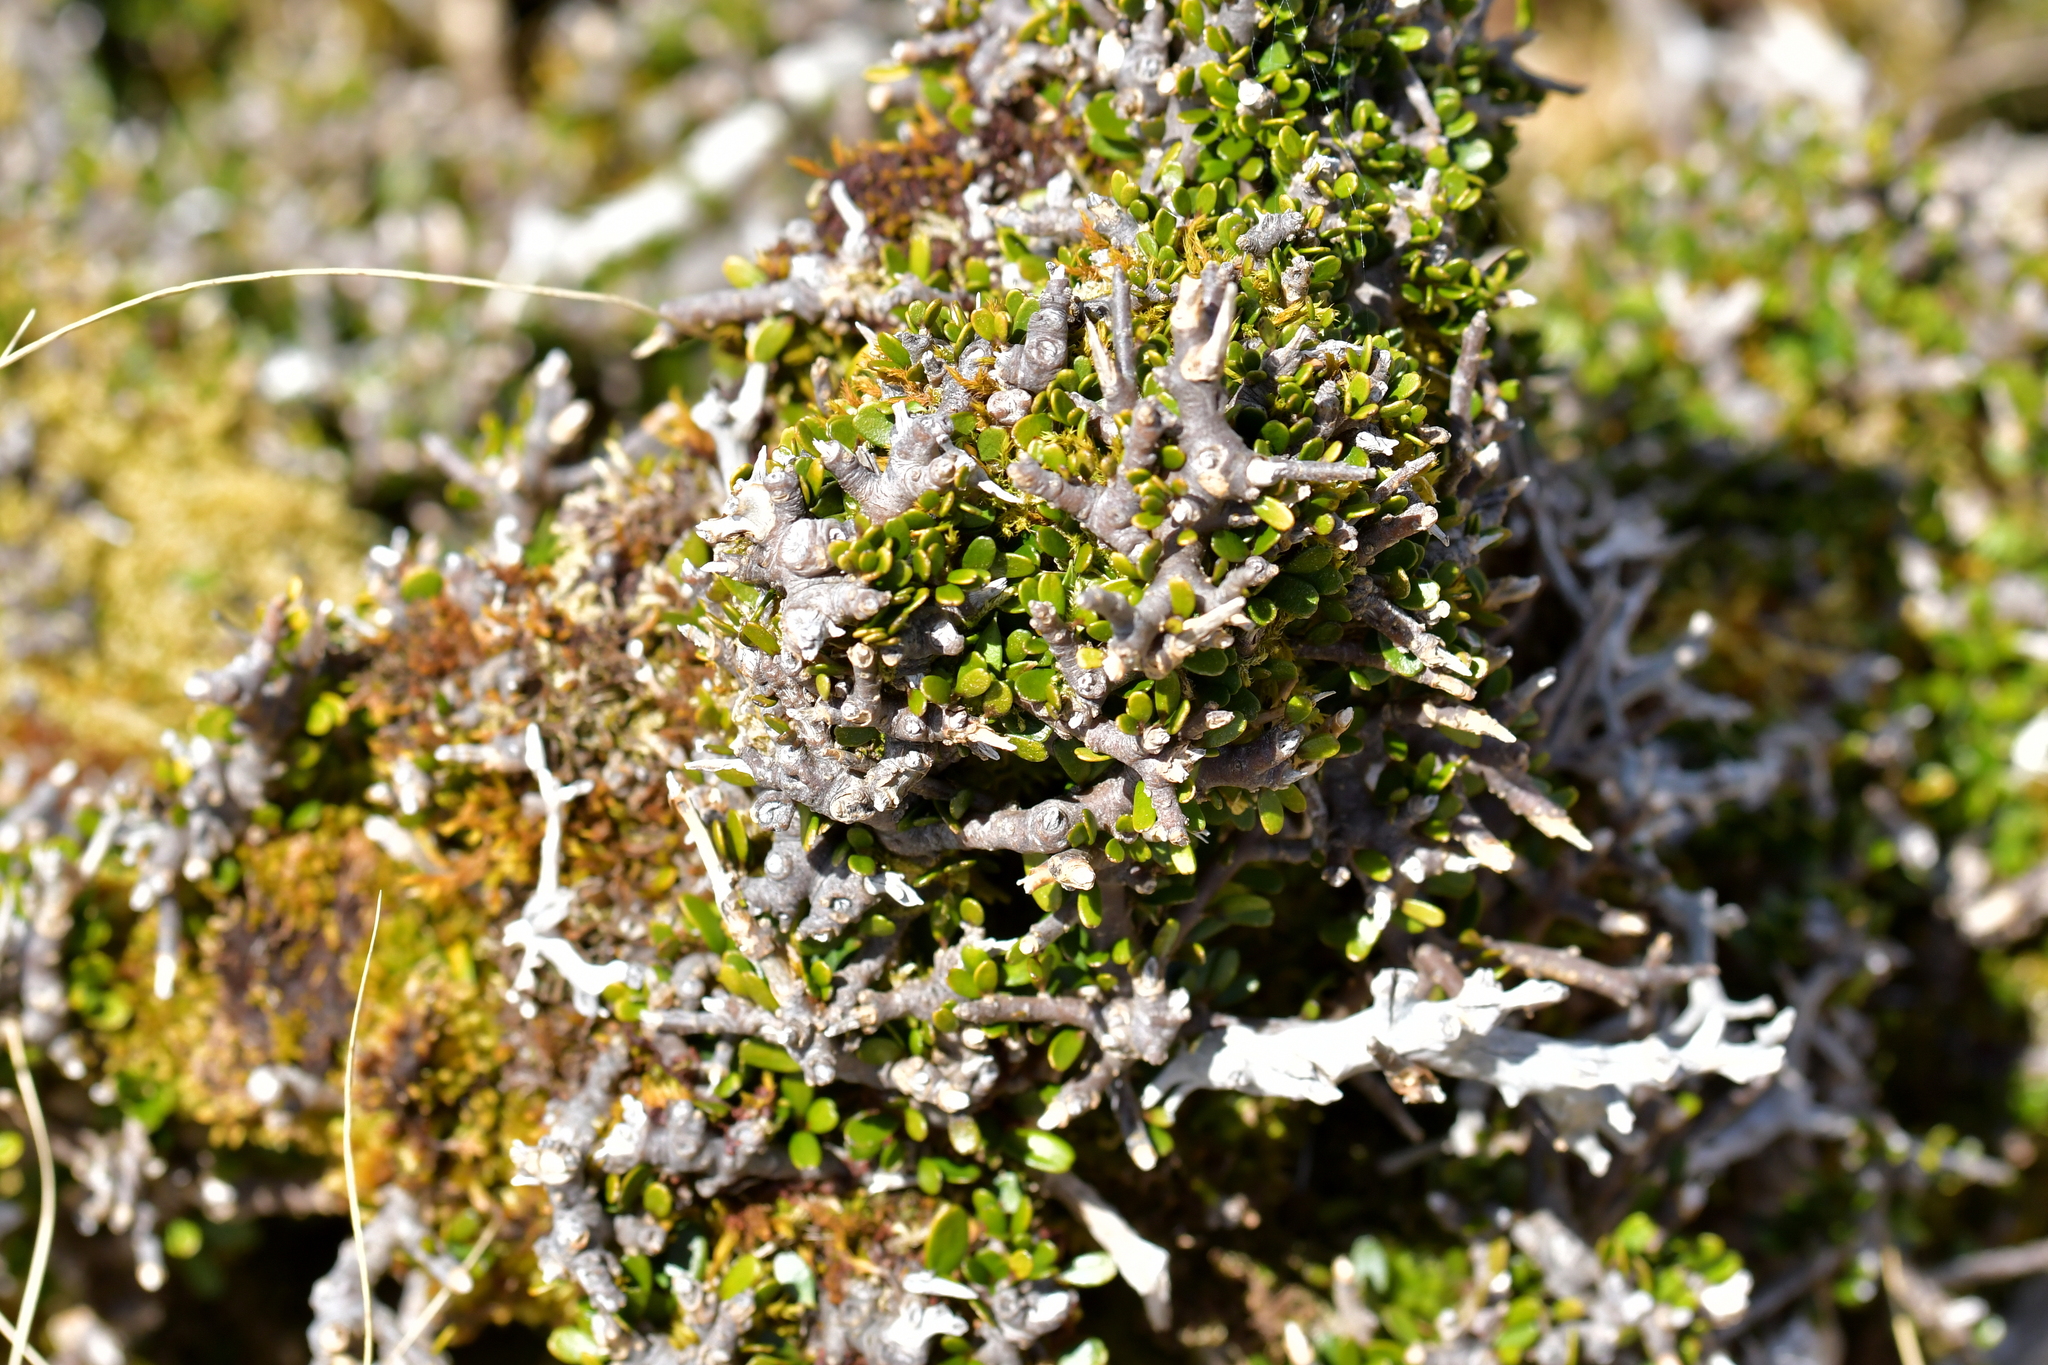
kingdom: Plantae
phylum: Tracheophyta
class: Magnoliopsida
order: Malpighiales
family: Violaceae
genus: Melicytus
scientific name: Melicytus alpinus
